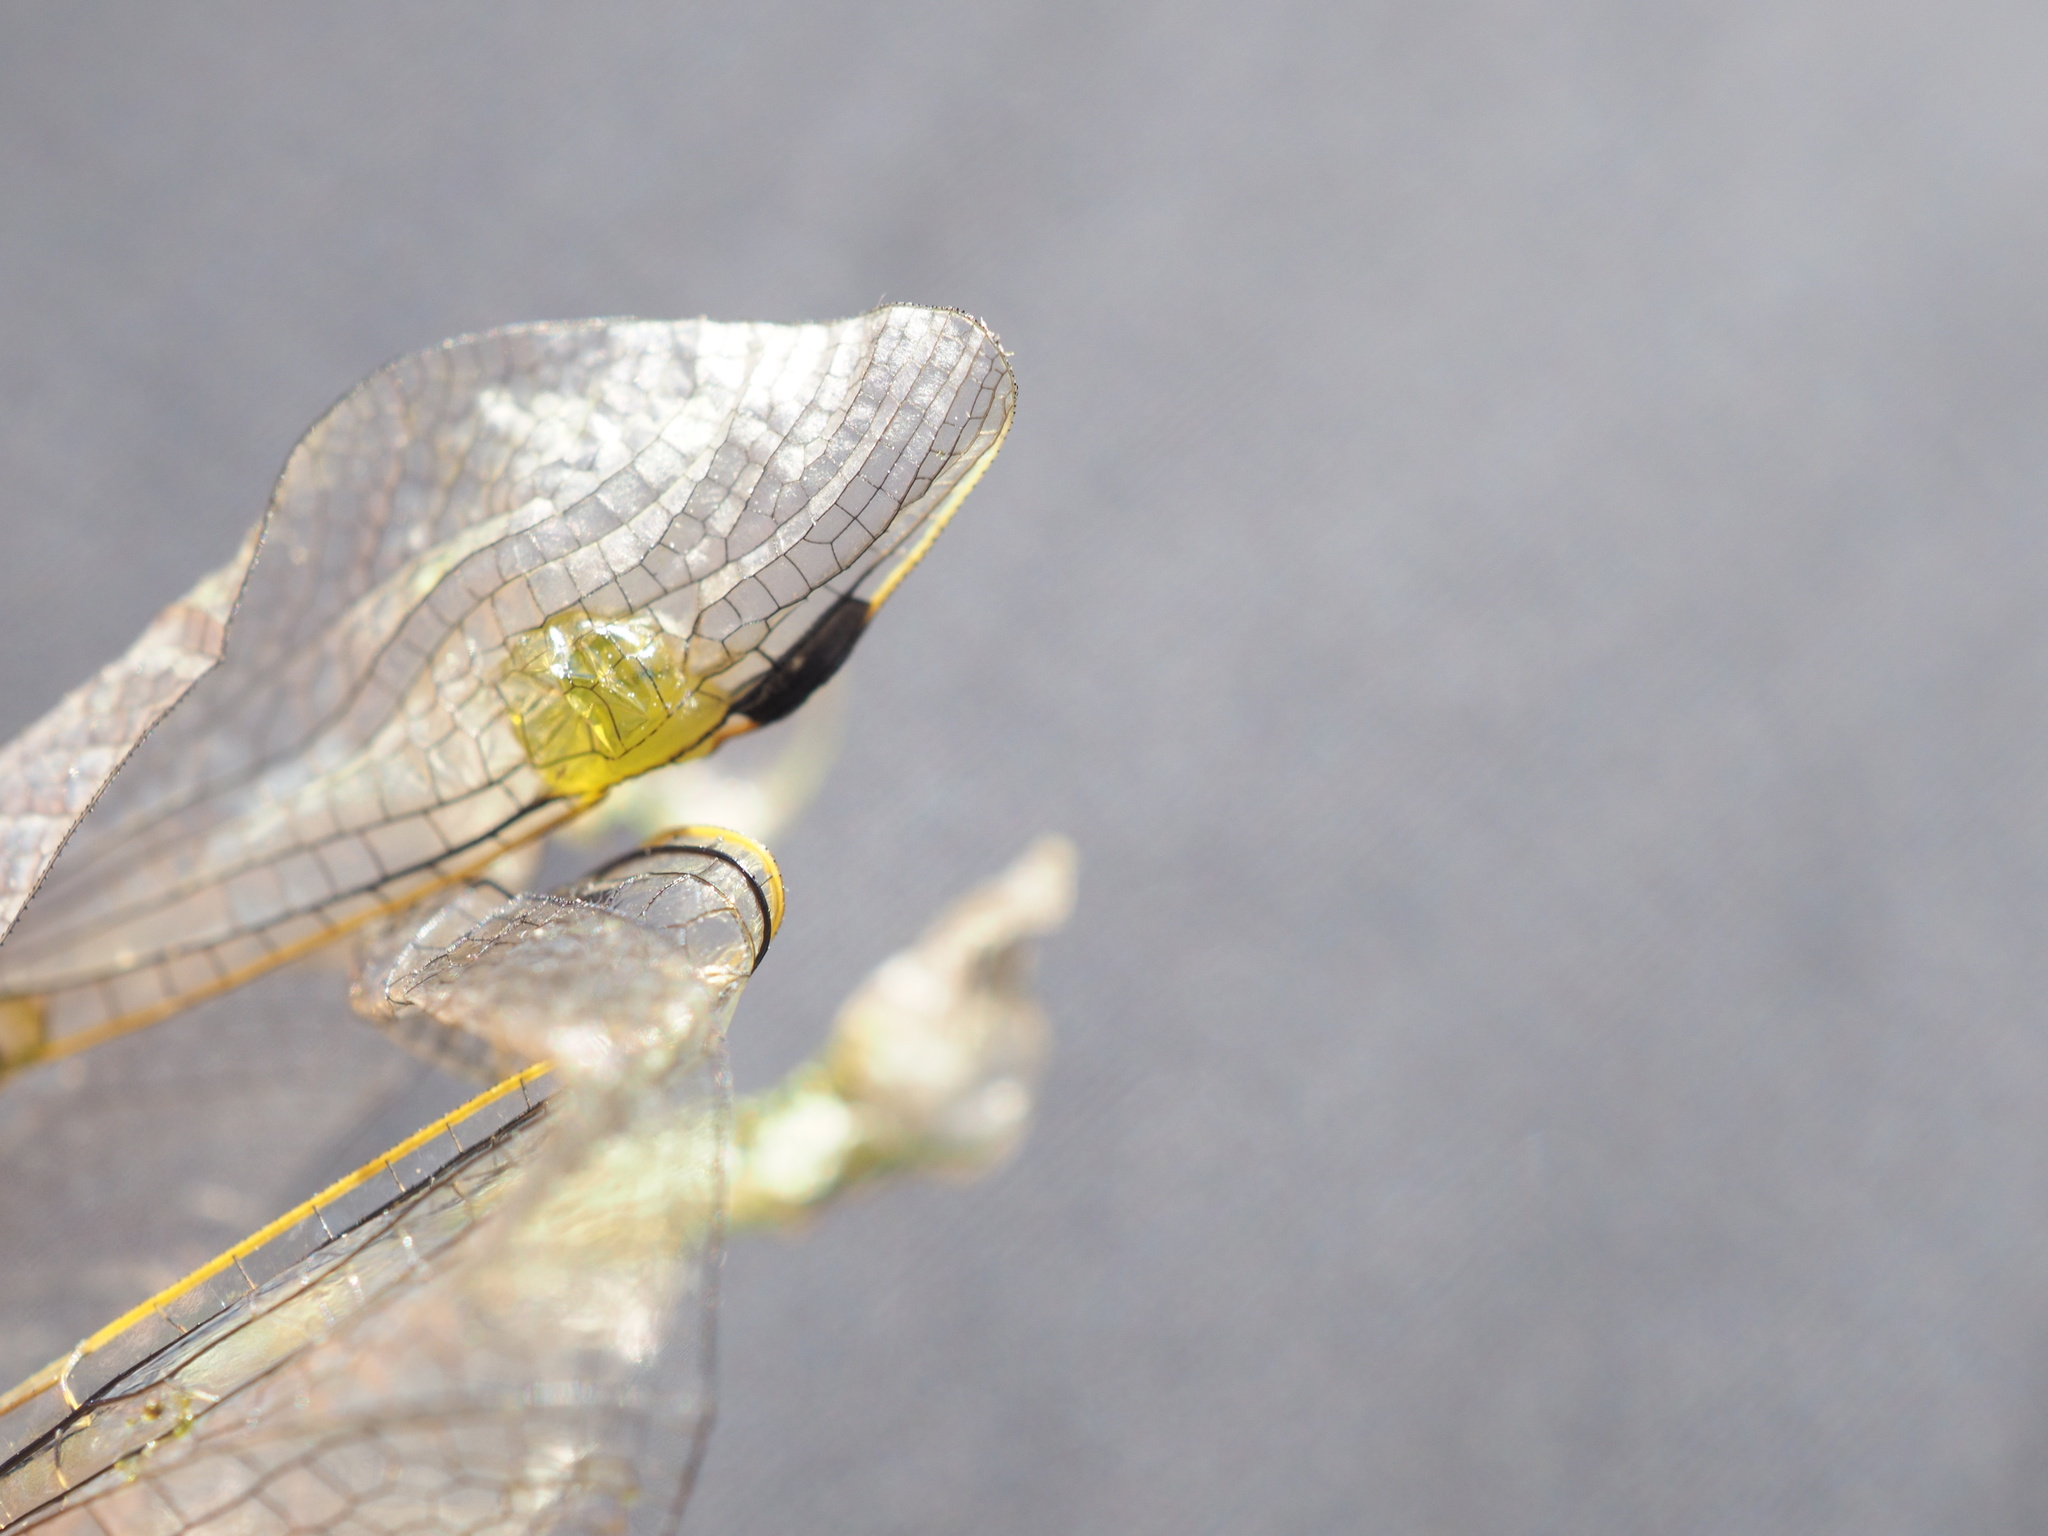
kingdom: Animalia
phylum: Arthropoda
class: Insecta
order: Odonata
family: Libellulidae
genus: Orthetrum
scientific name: Orthetrum cancellatum
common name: Black-tailed skimmer
